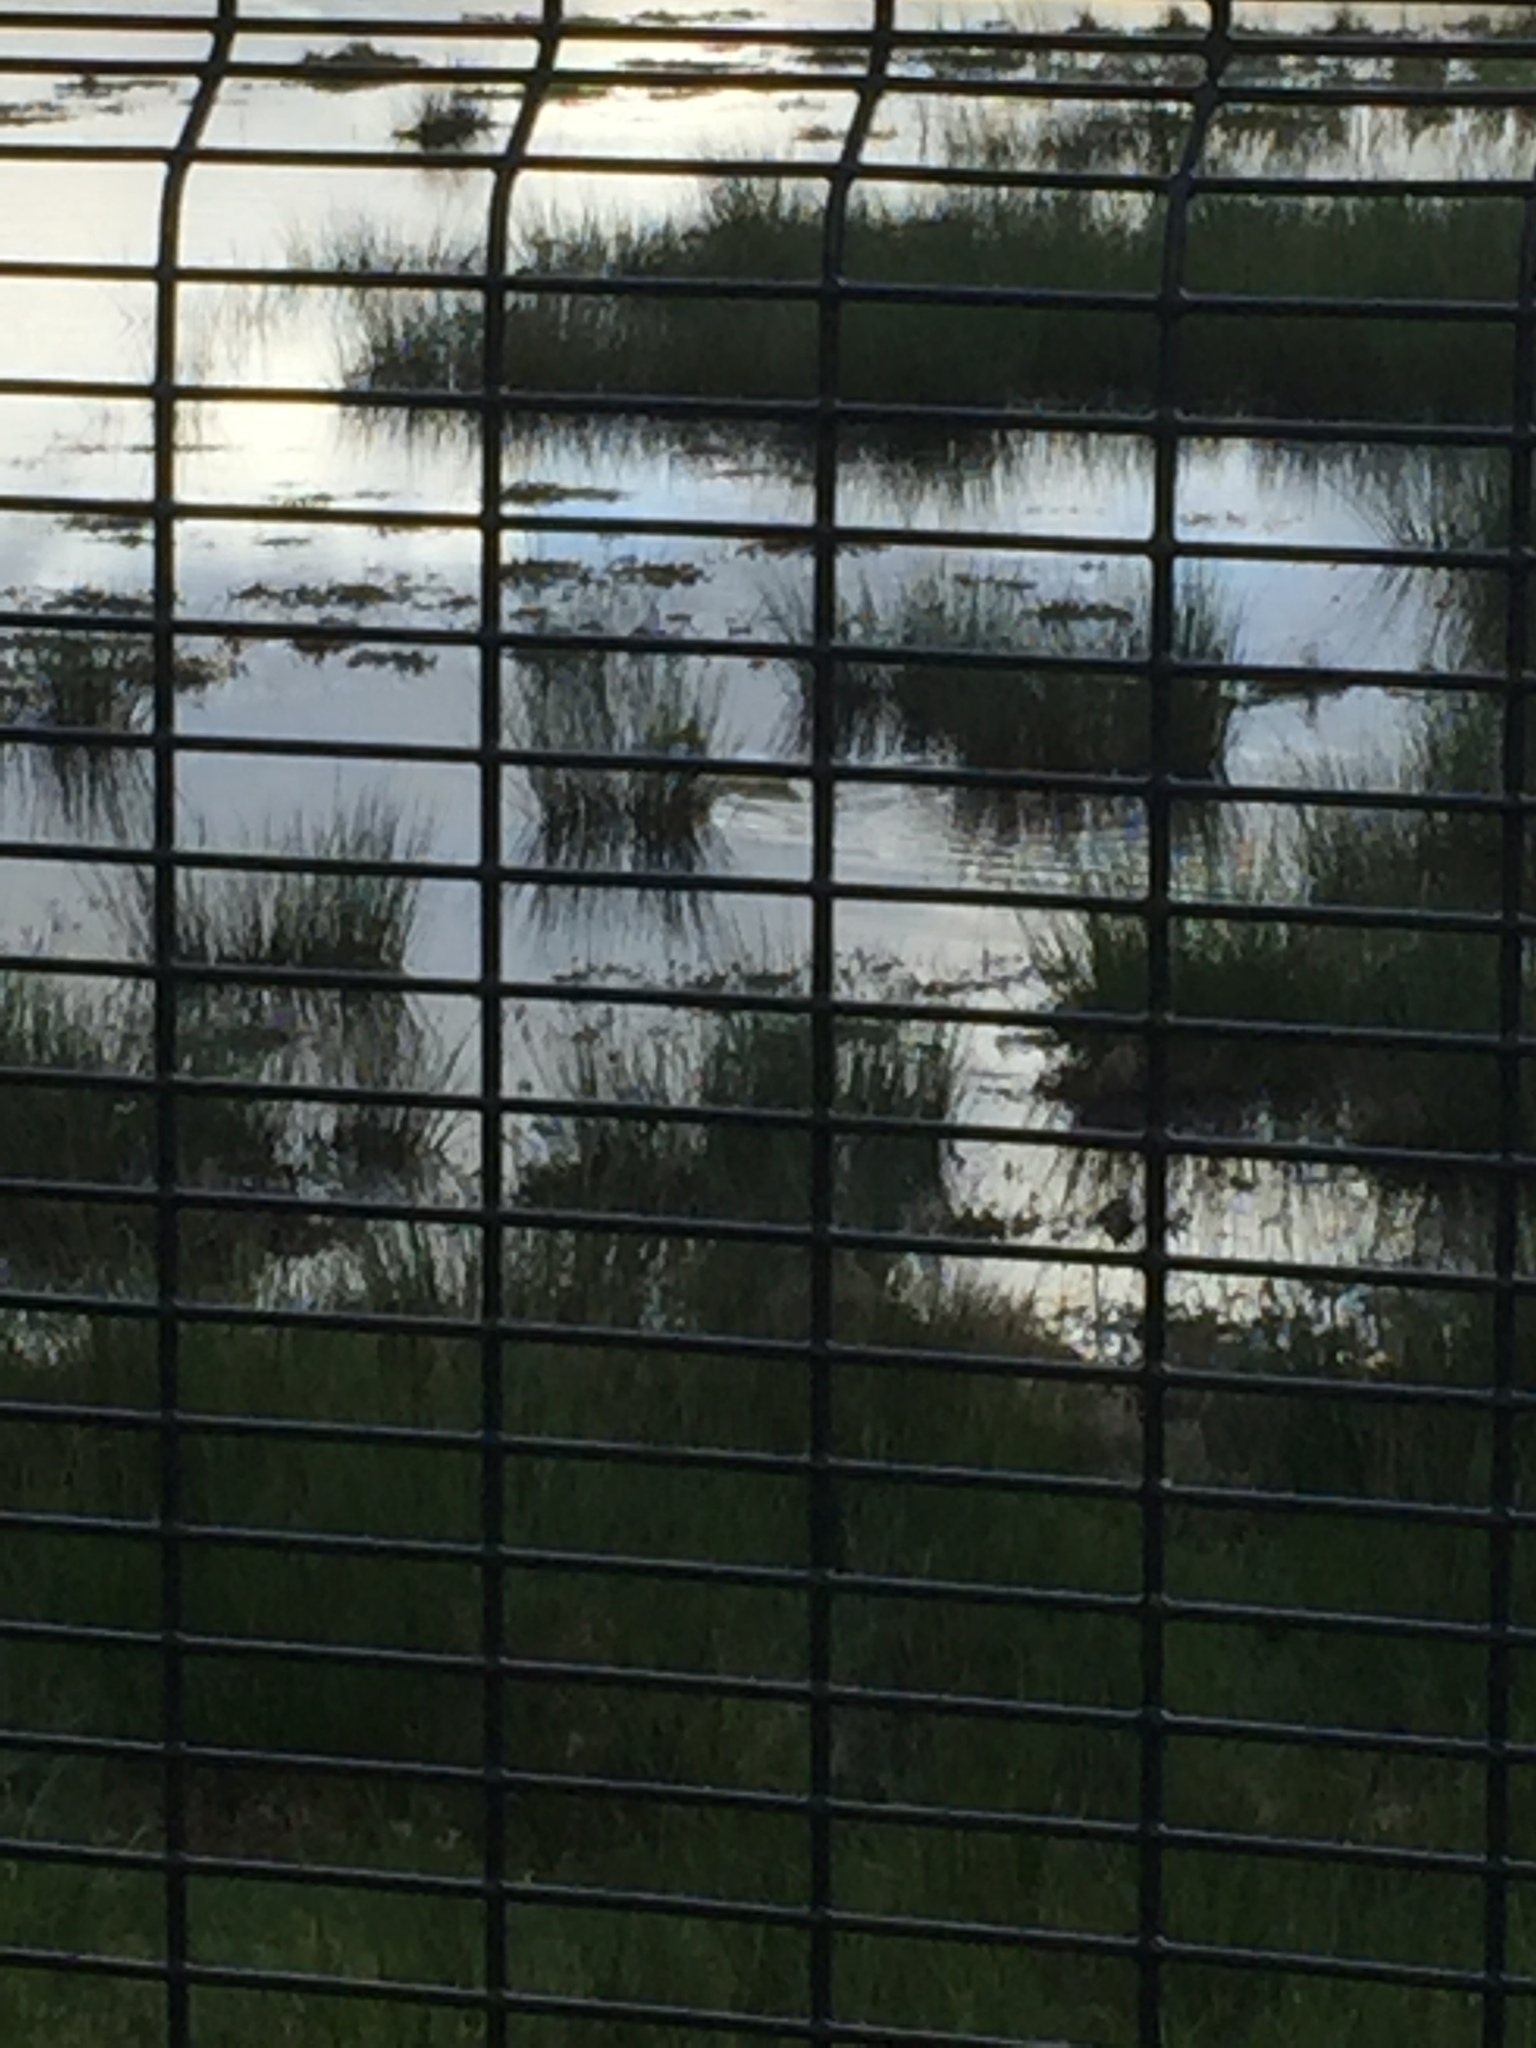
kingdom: Animalia
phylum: Chordata
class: Aves
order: Anseriformes
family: Anatidae
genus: Anas
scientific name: Anas platyrhynchos
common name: Mallard
